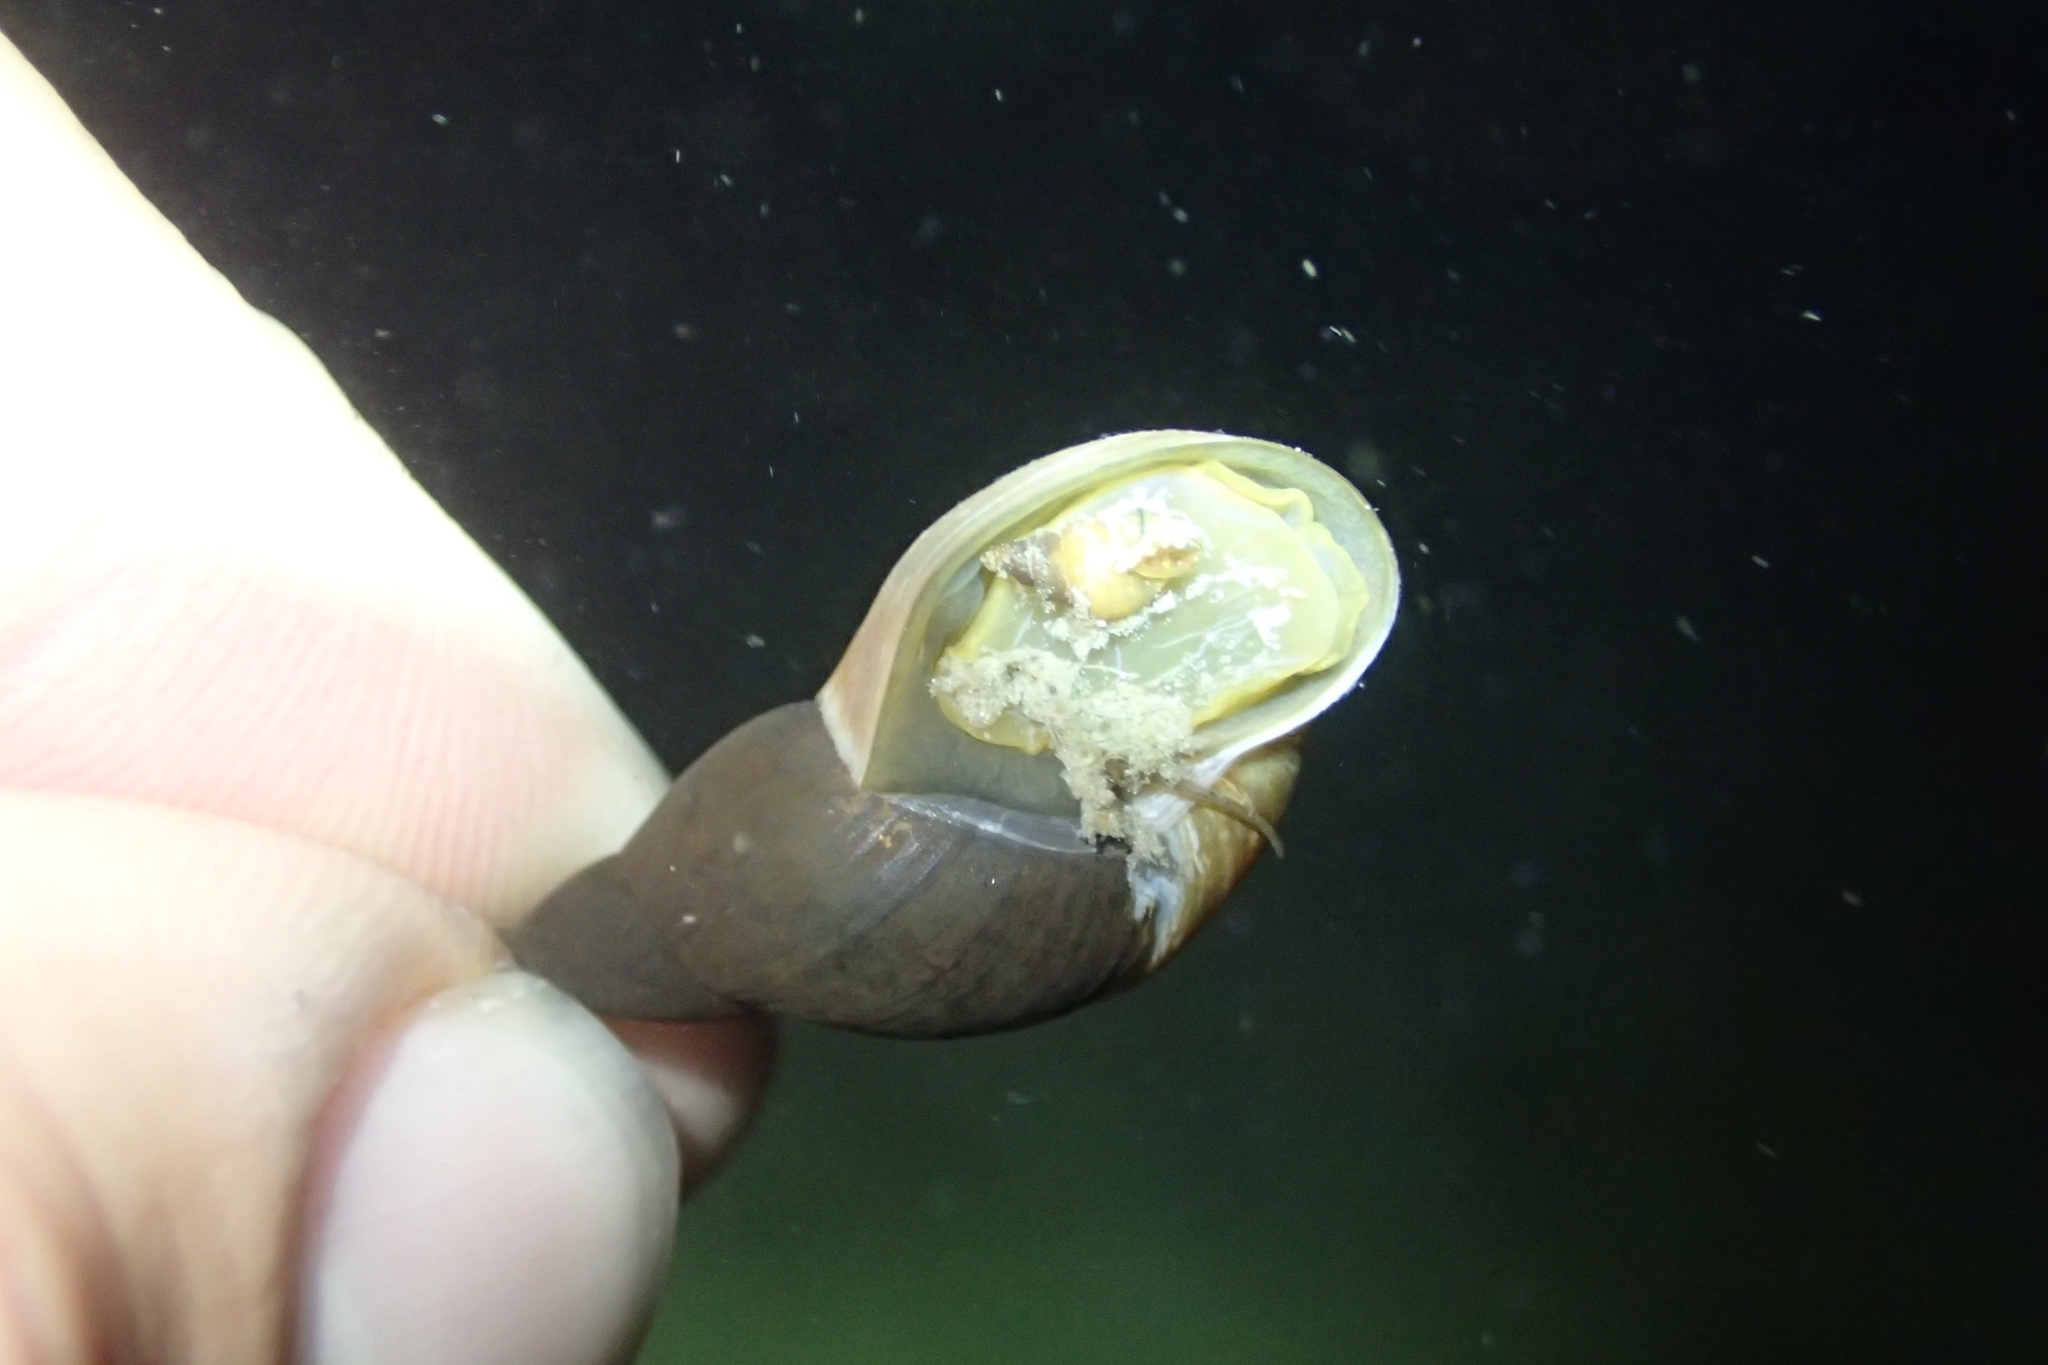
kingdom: Animalia
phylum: Mollusca
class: Gastropoda
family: Lymnaeidae
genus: Lymnaea
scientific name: Lymnaea stagnalis
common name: Great pond snail
